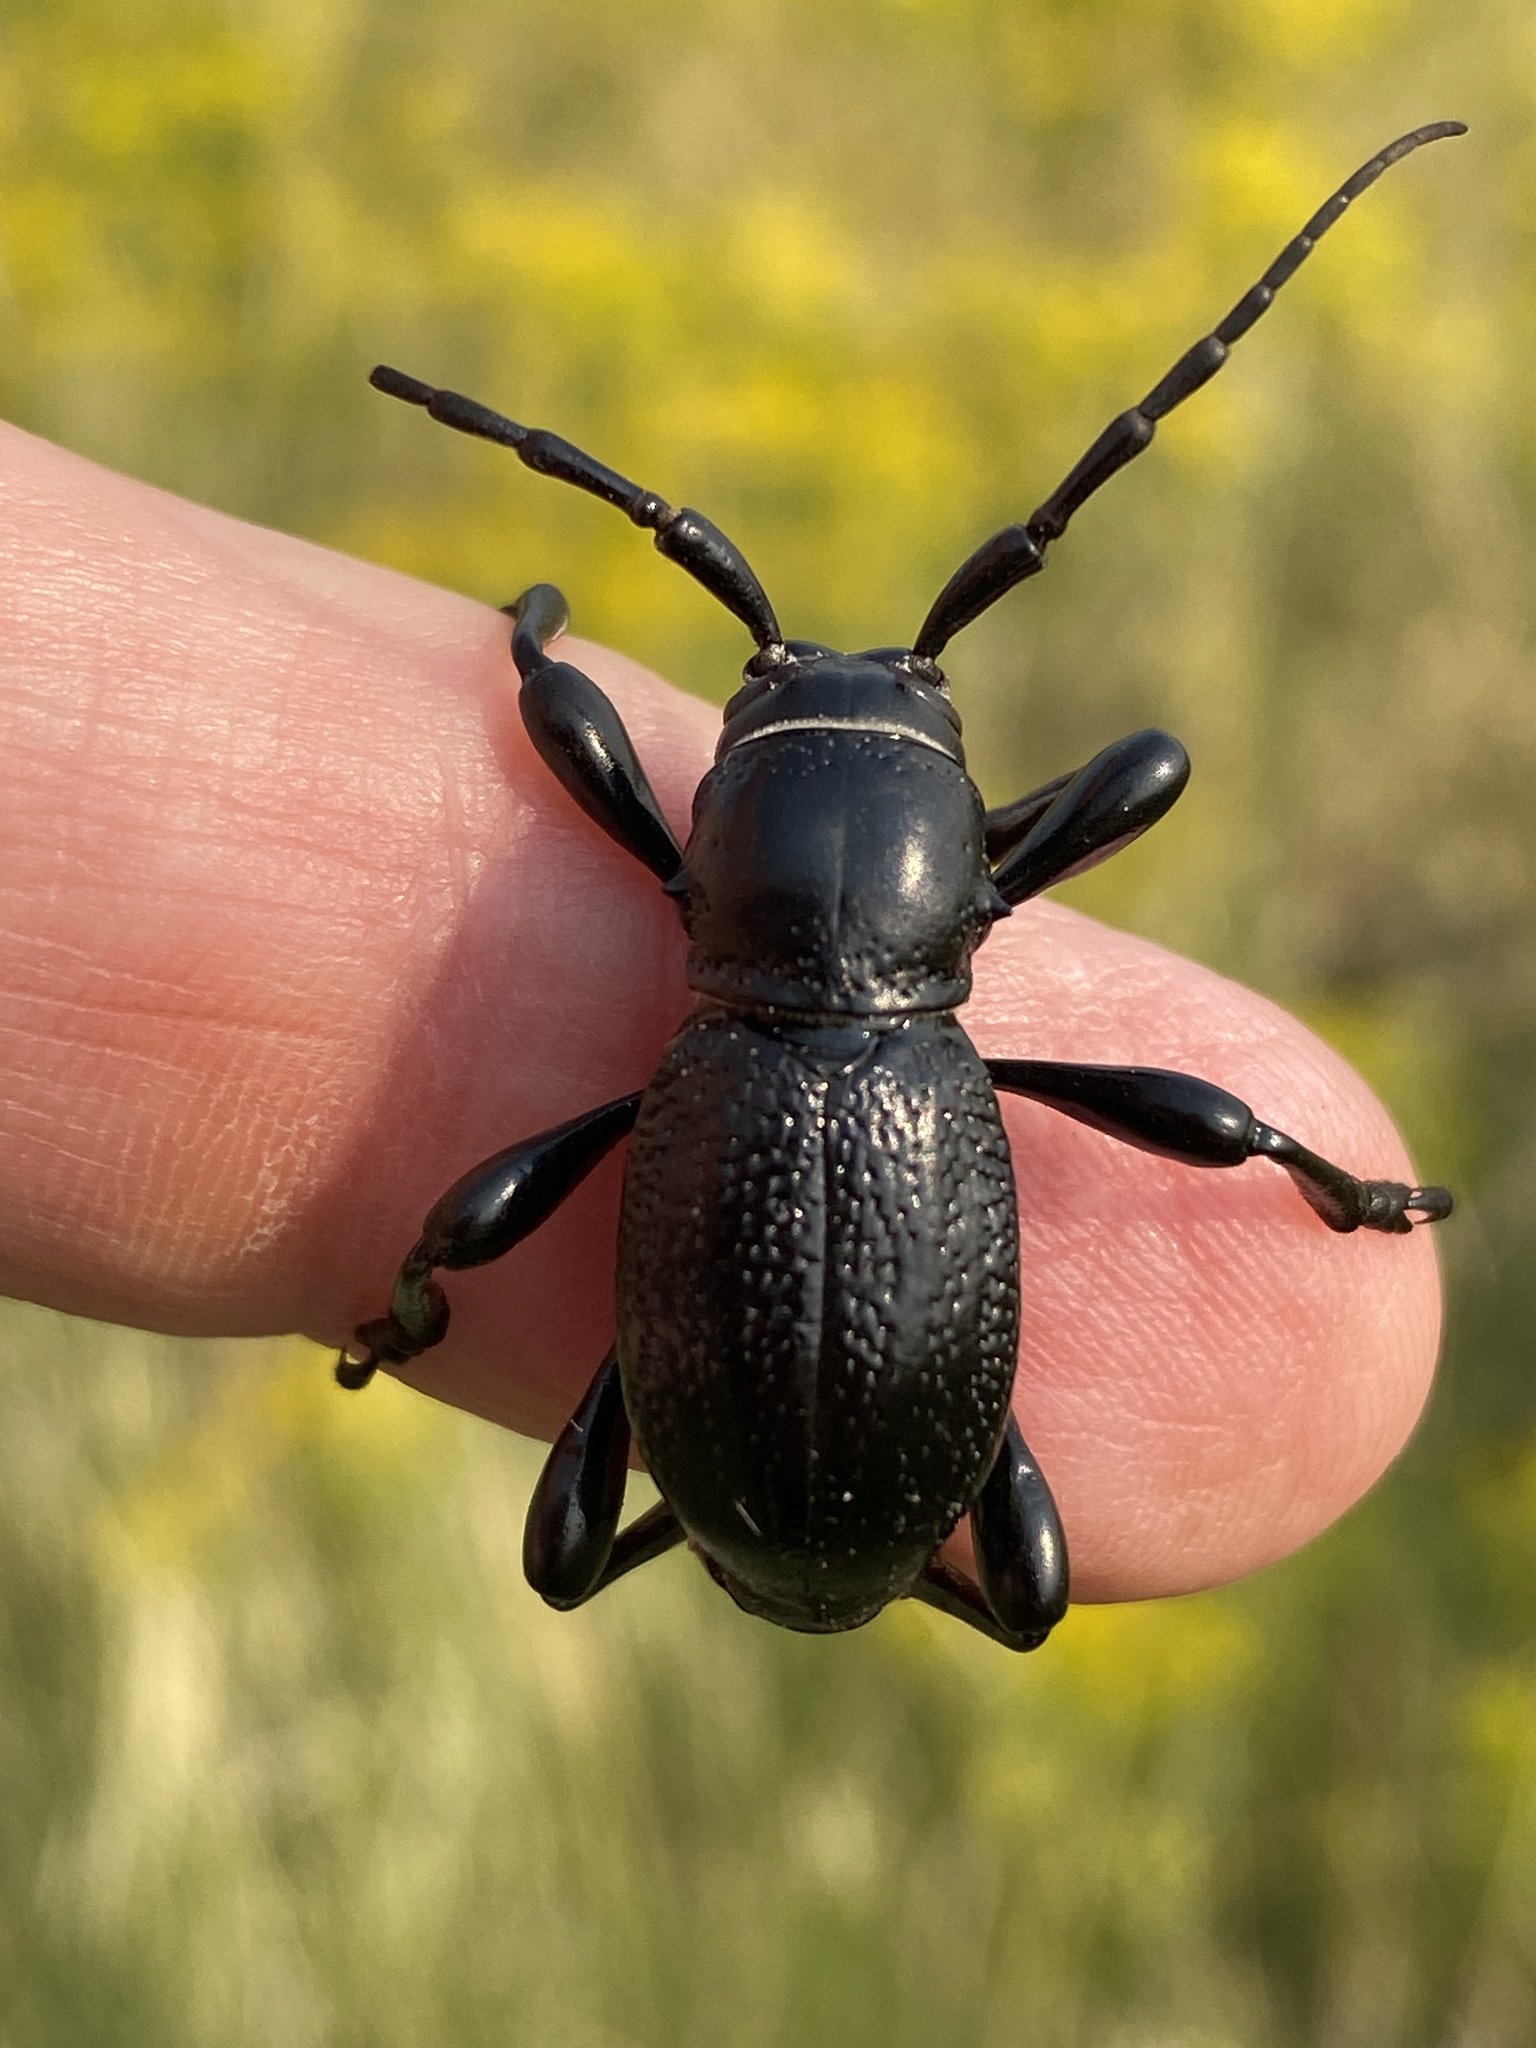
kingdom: Animalia
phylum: Arthropoda
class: Insecta
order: Coleoptera
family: Cerambycidae
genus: Moneilema
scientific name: Moneilema armatum
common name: Long-horned beetle
